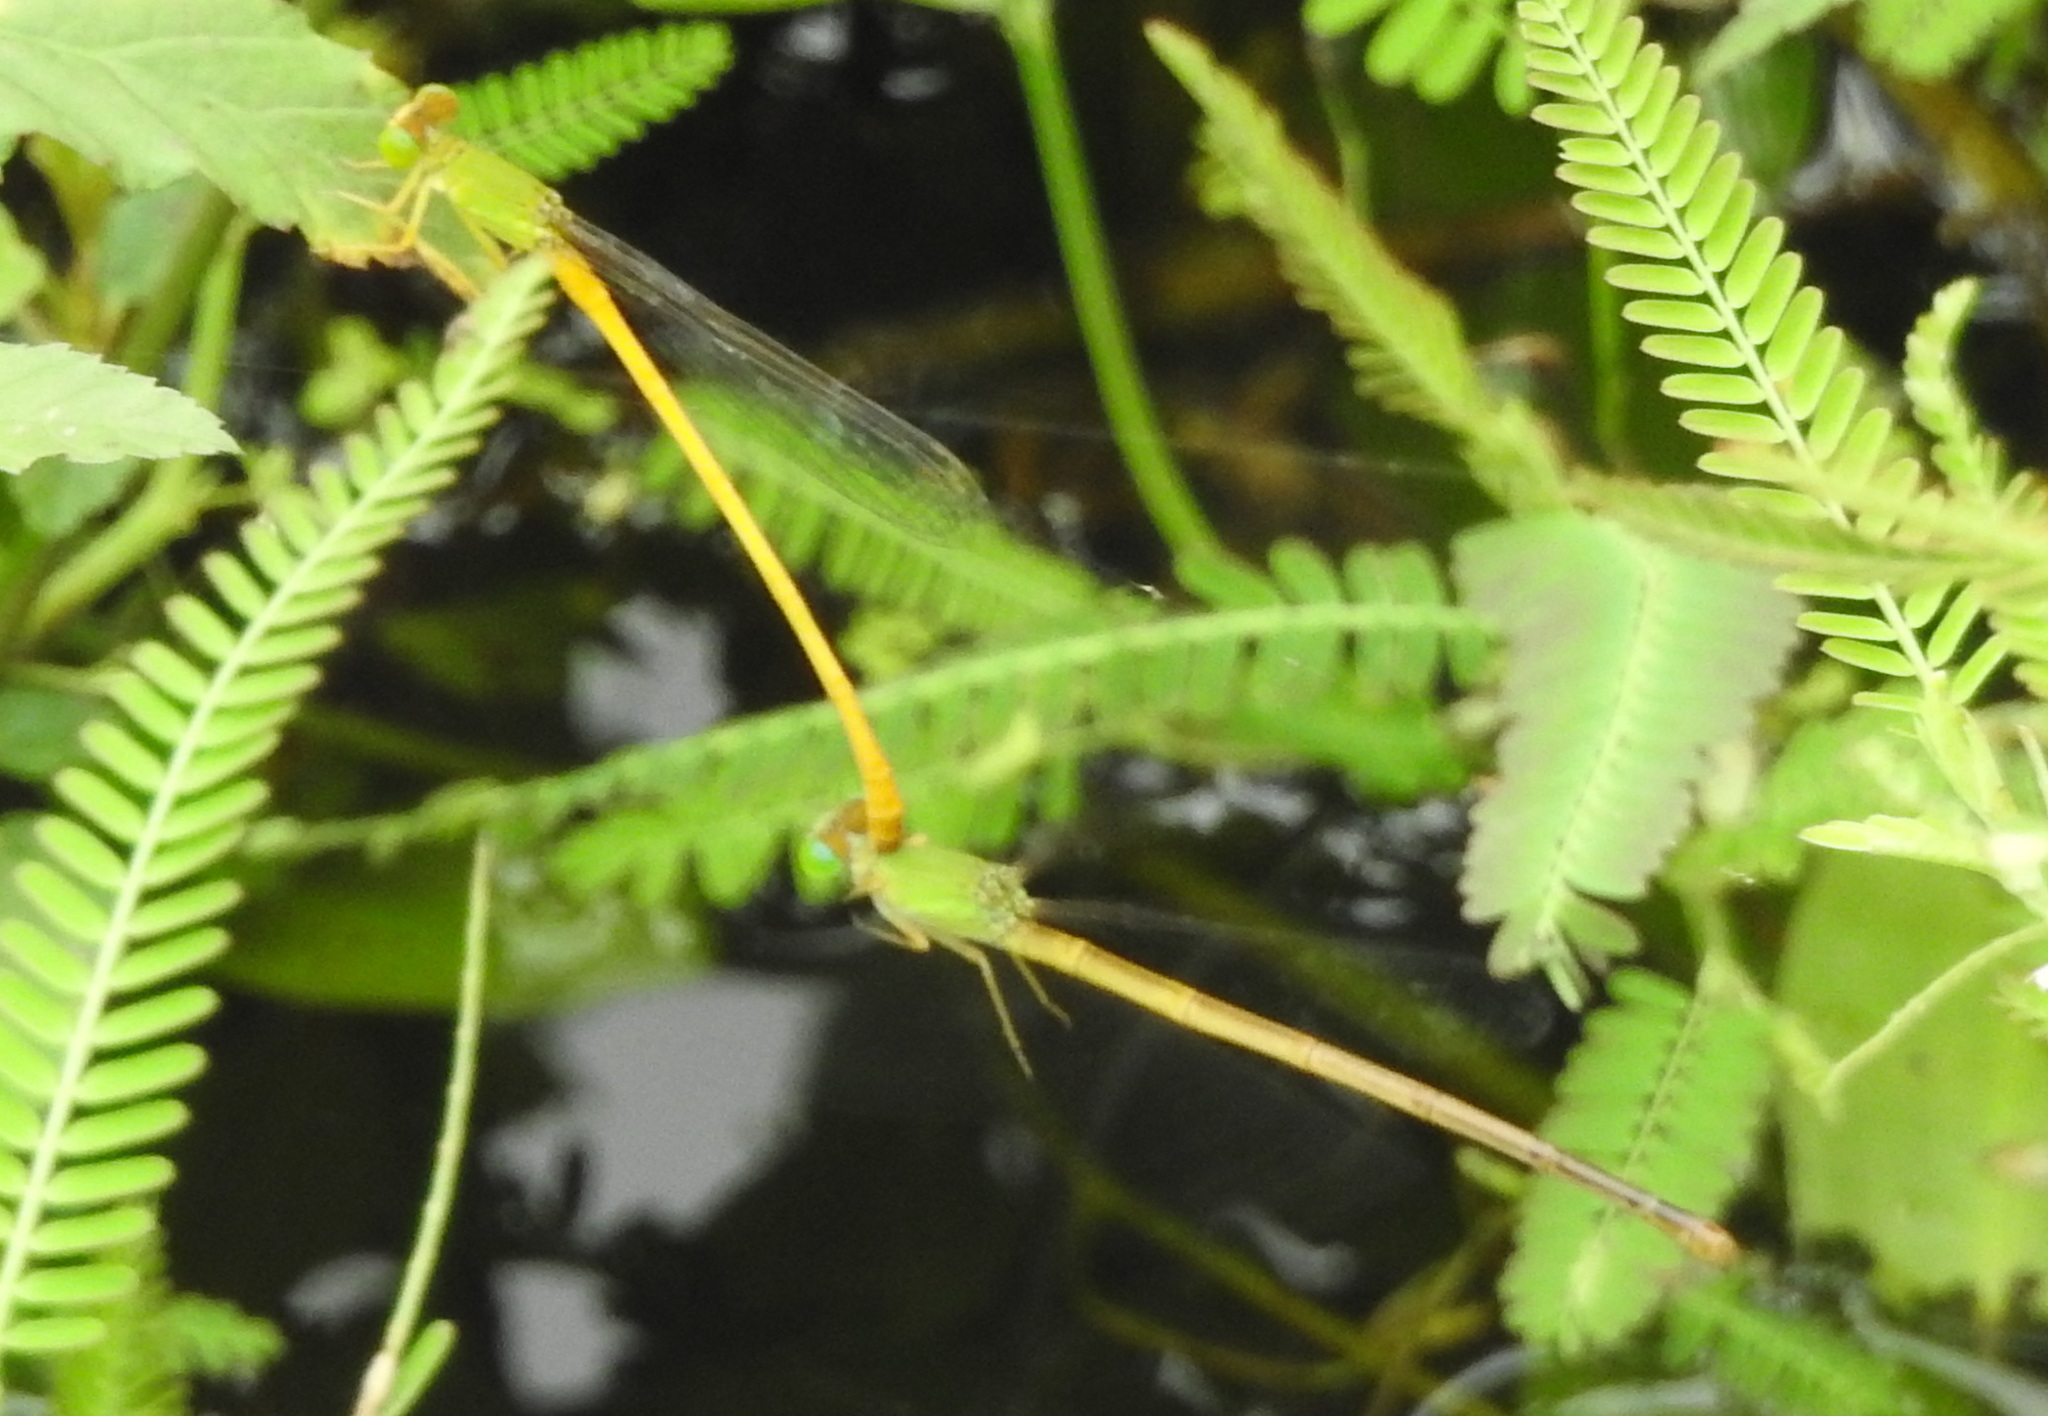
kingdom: Animalia
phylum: Arthropoda
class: Insecta
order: Odonata
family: Coenagrionidae
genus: Ceriagrion
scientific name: Ceriagrion coromandelianum
